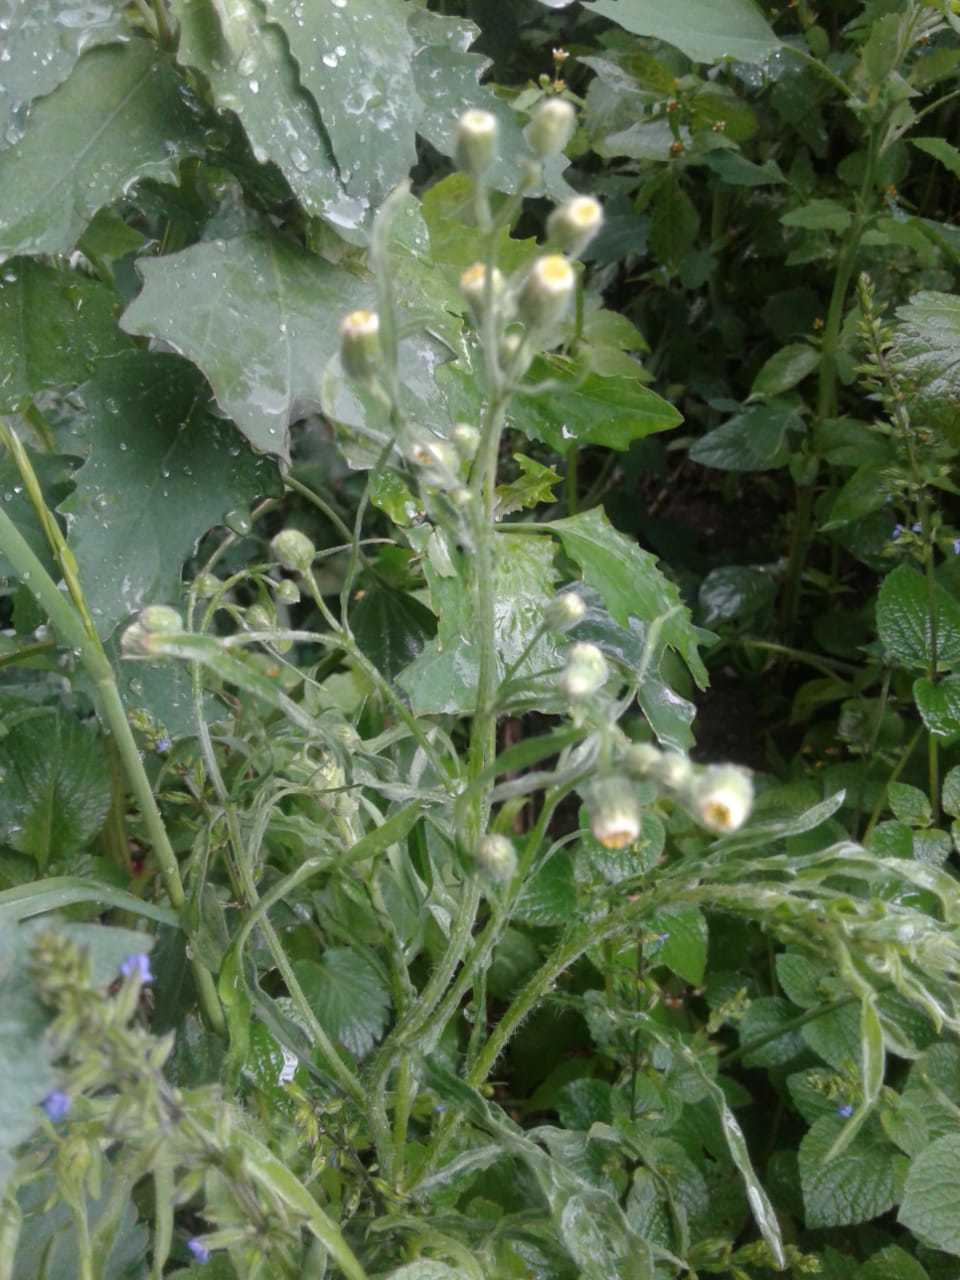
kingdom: Plantae
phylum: Tracheophyta
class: Magnoliopsida
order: Asterales
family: Asteraceae
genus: Erigeron
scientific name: Erigeron bonariensis
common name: Argentine fleabane
